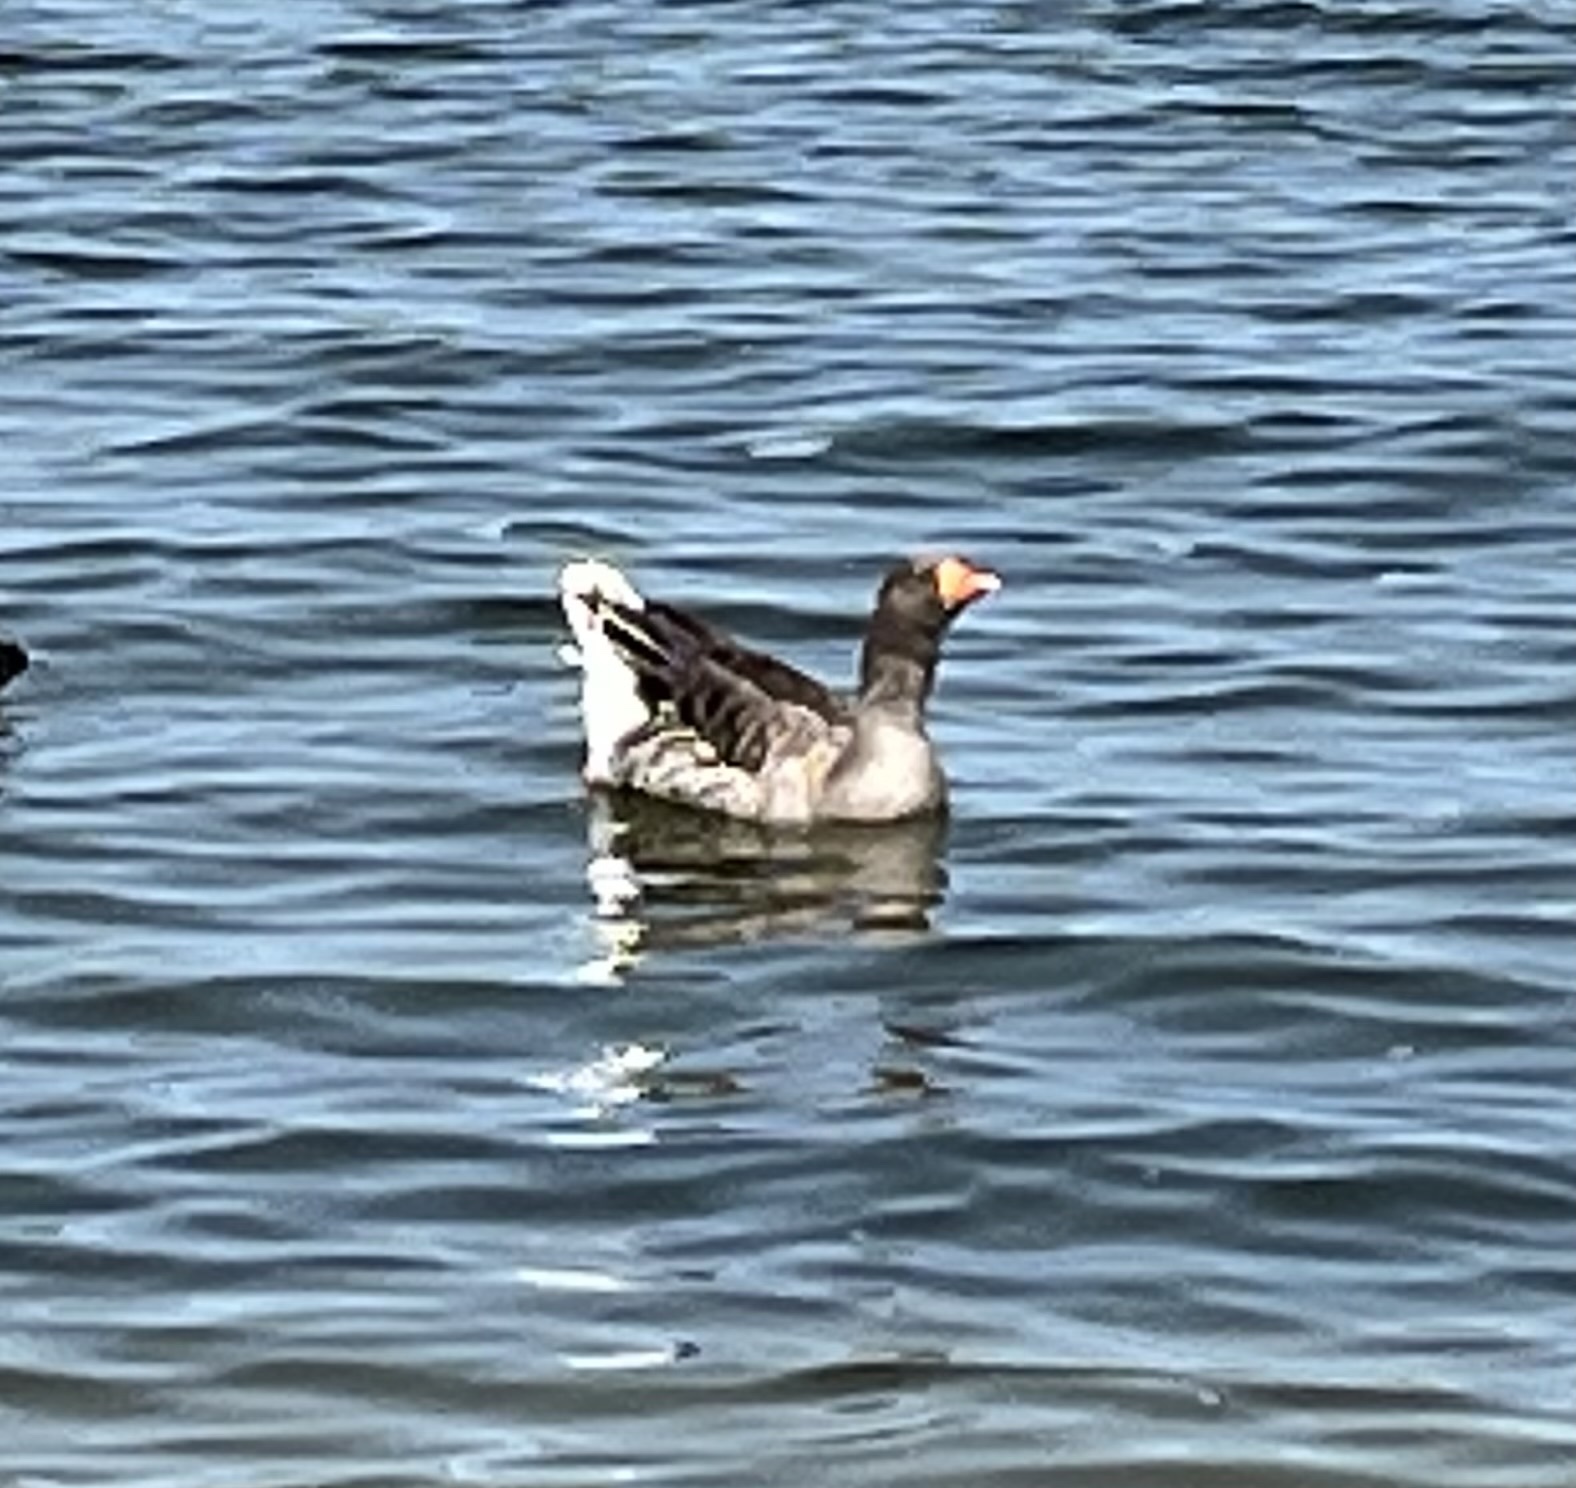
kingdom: Animalia
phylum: Chordata
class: Aves
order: Anseriformes
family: Anatidae
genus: Anser
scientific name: Anser anser
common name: Greylag goose
